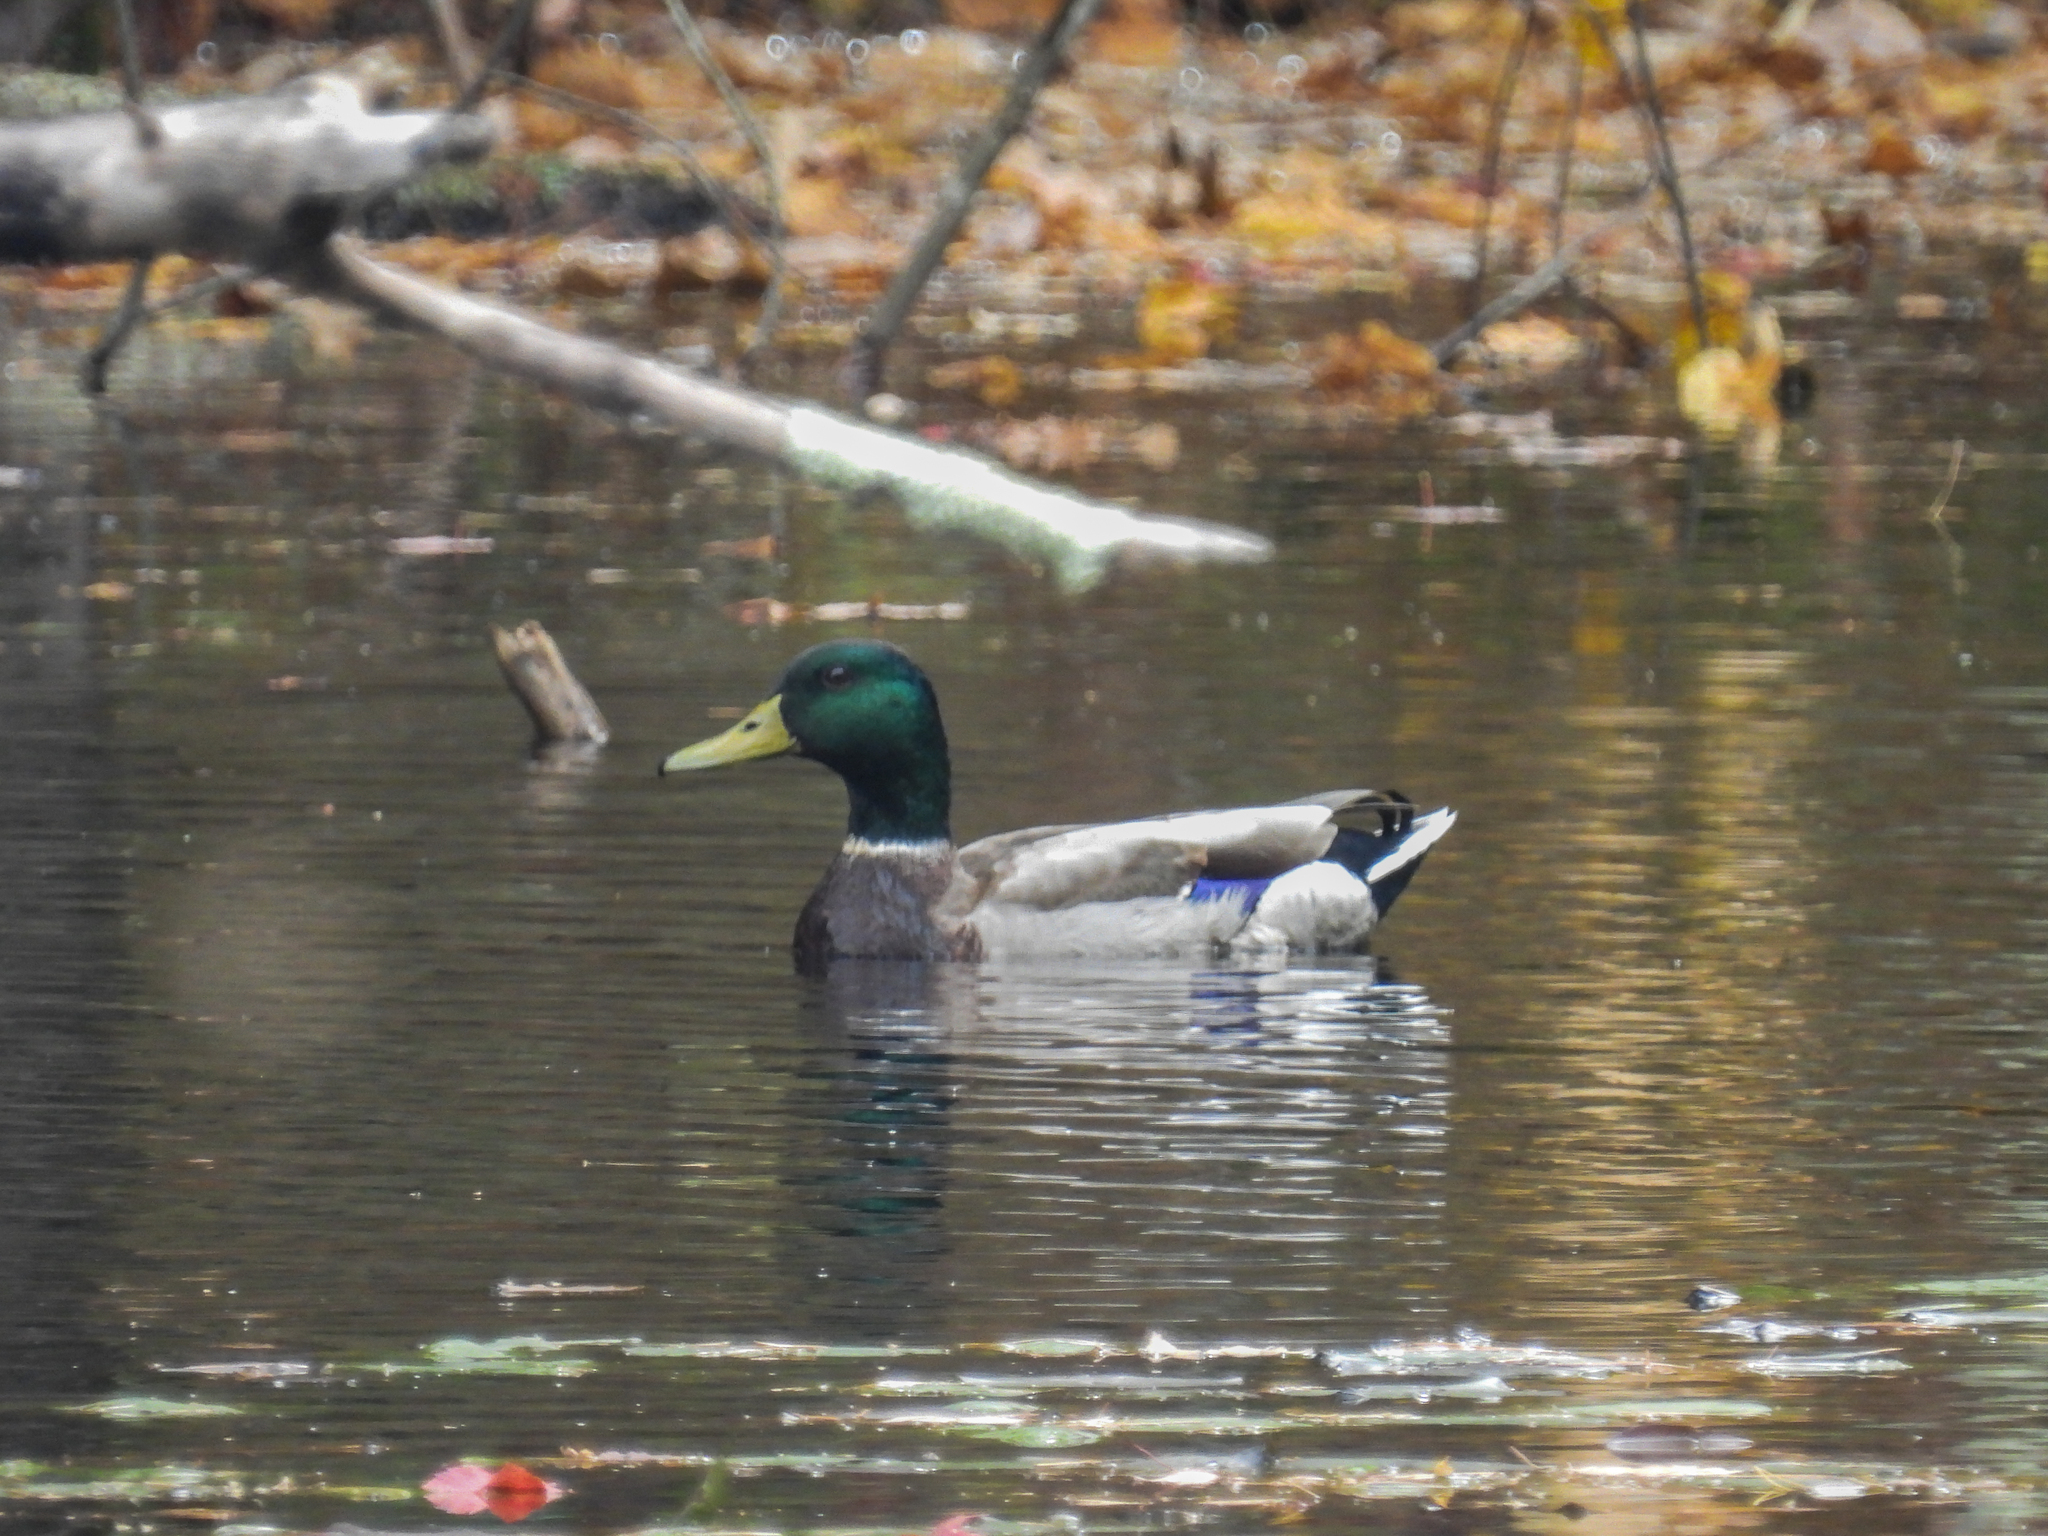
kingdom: Animalia
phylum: Chordata
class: Aves
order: Anseriformes
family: Anatidae
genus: Anas
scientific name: Anas platyrhynchos
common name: Mallard
